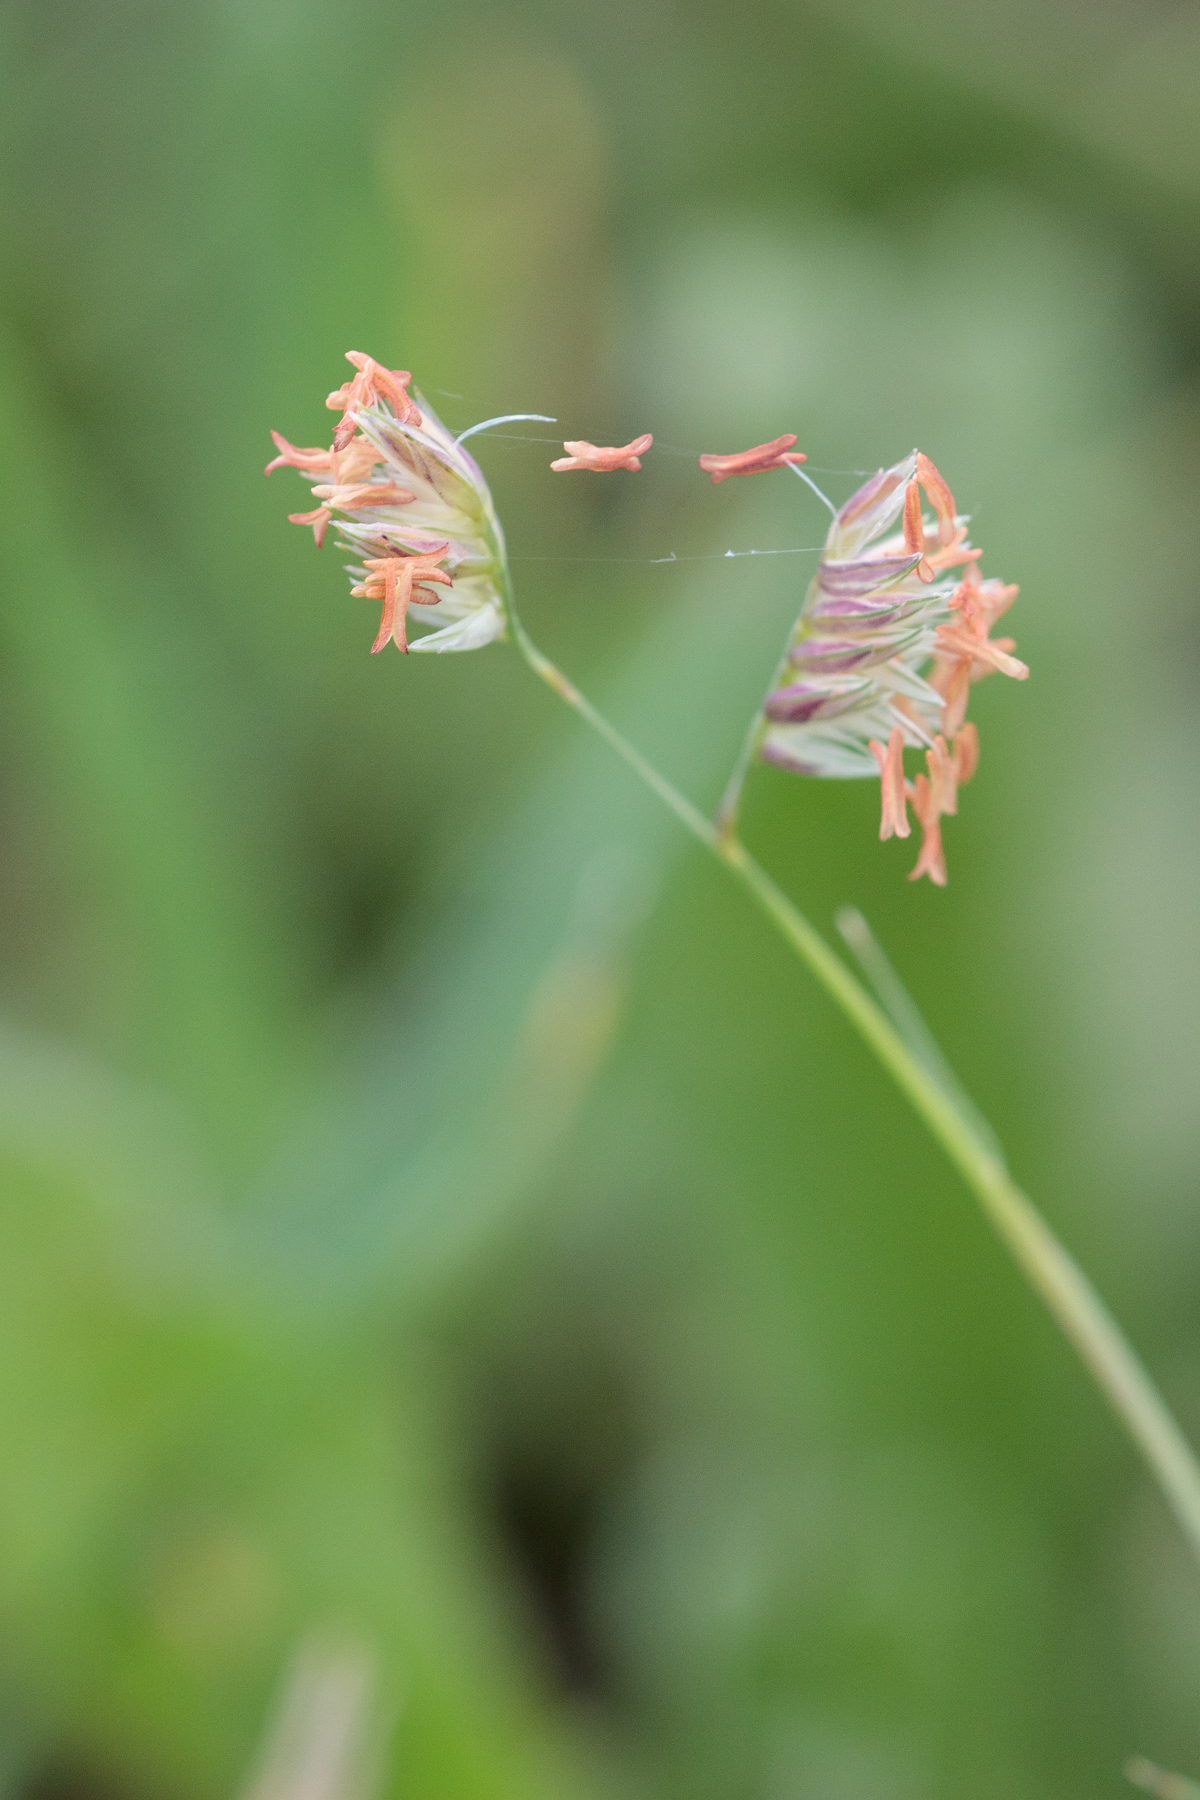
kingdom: Plantae
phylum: Tracheophyta
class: Liliopsida
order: Poales
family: Poaceae
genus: Bouteloua
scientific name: Bouteloua dactyloides
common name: Buffalo grass
